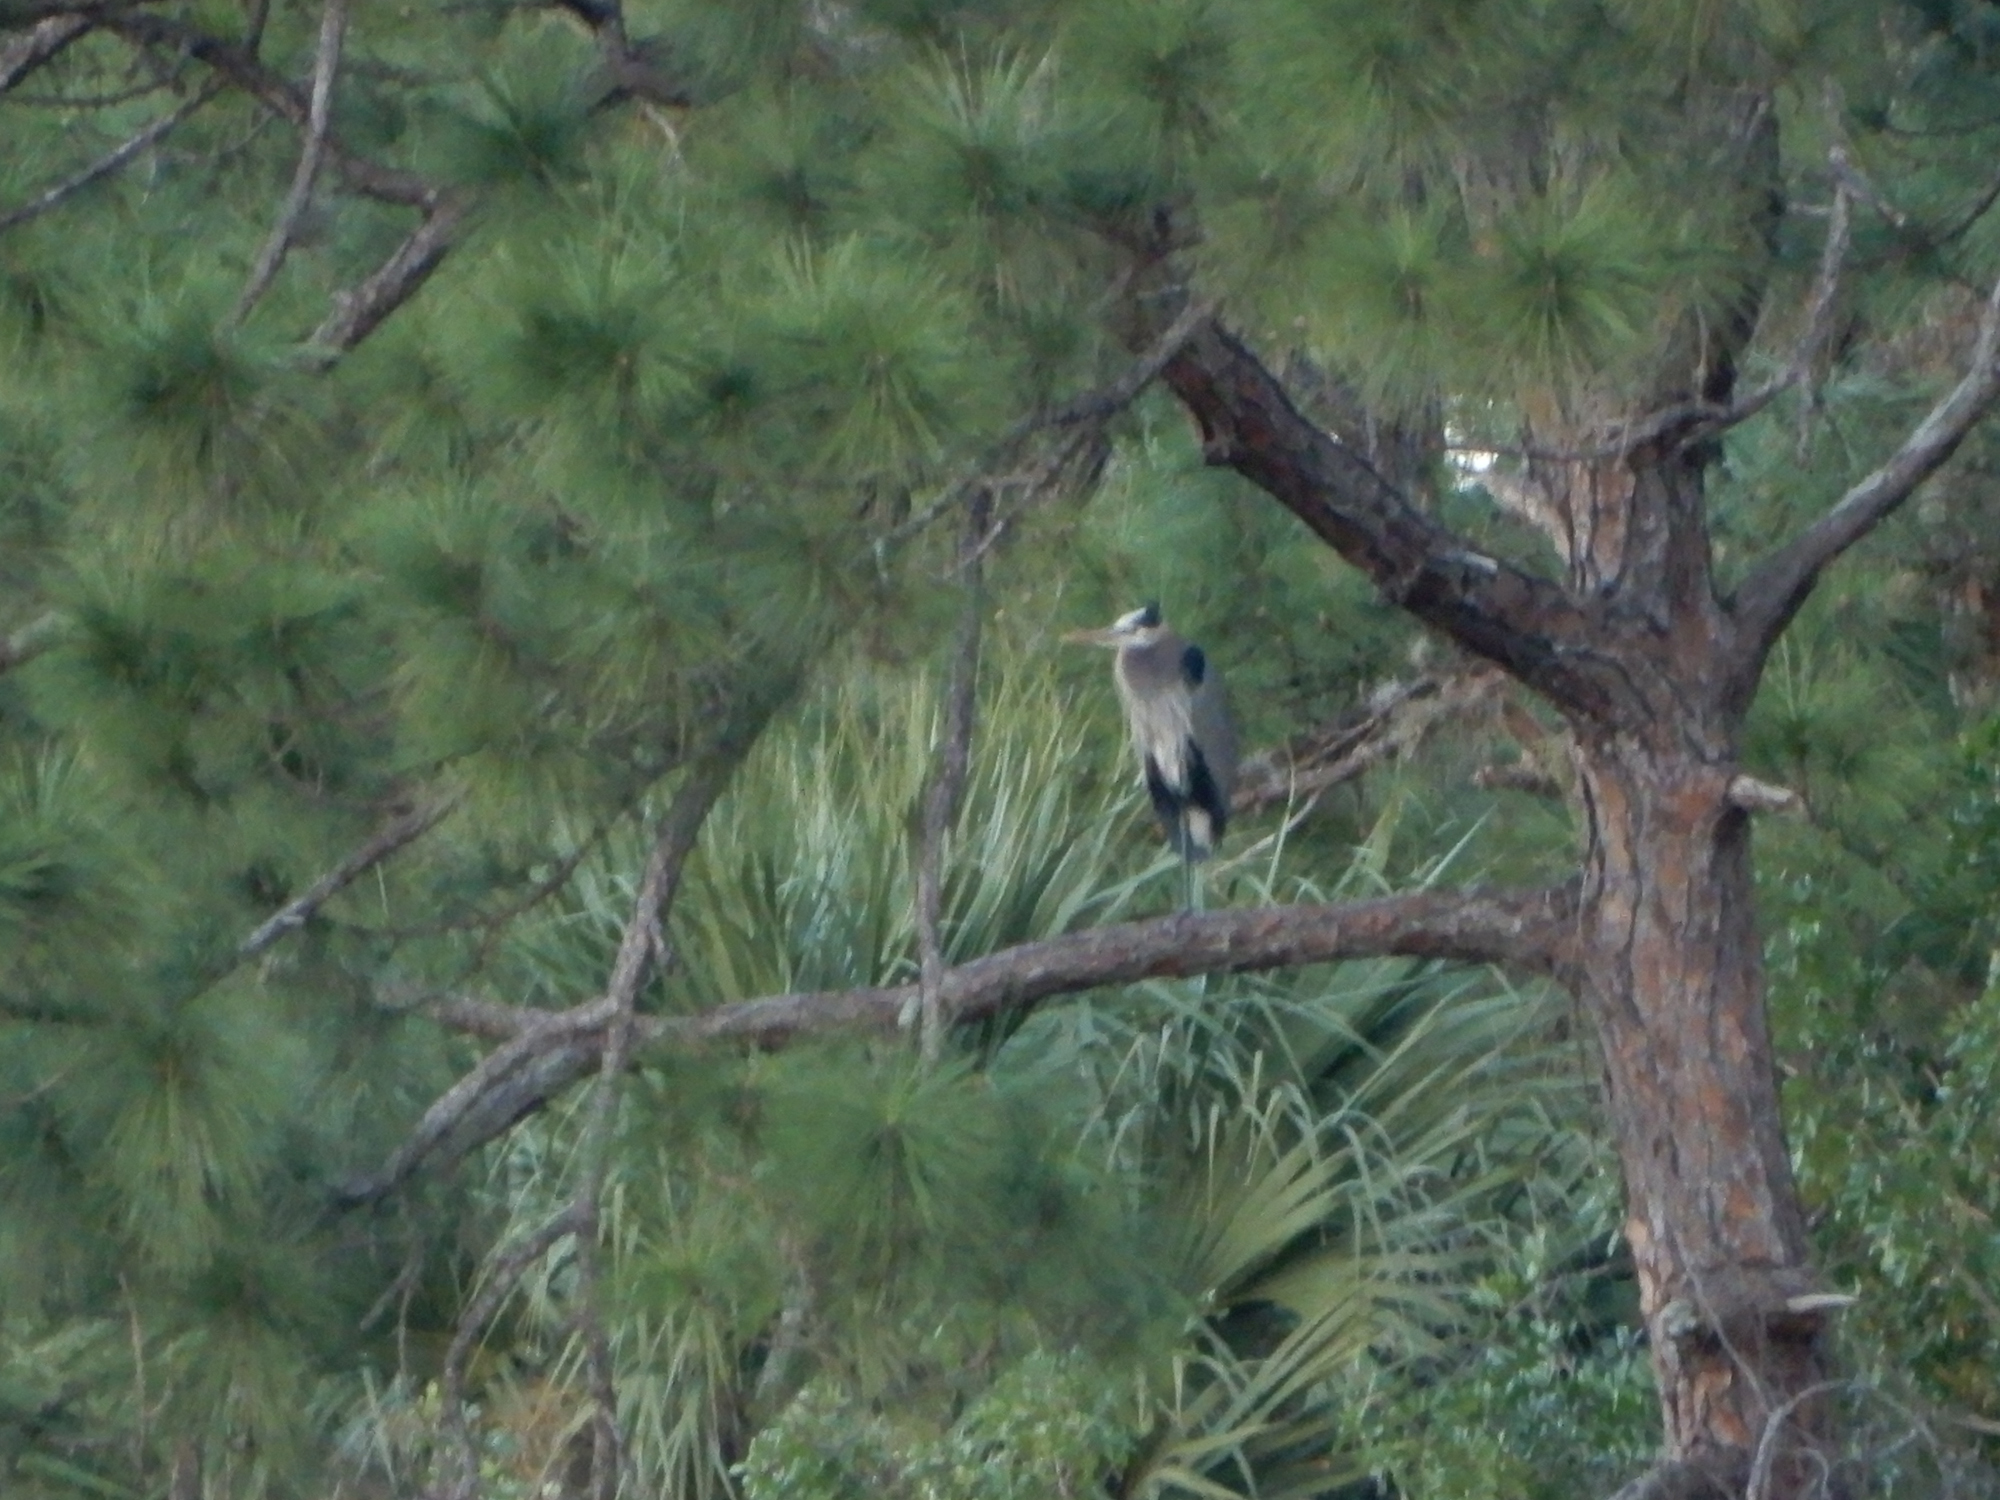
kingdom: Animalia
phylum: Chordata
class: Aves
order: Pelecaniformes
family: Ardeidae
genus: Ardea
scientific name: Ardea herodias
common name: Great blue heron
